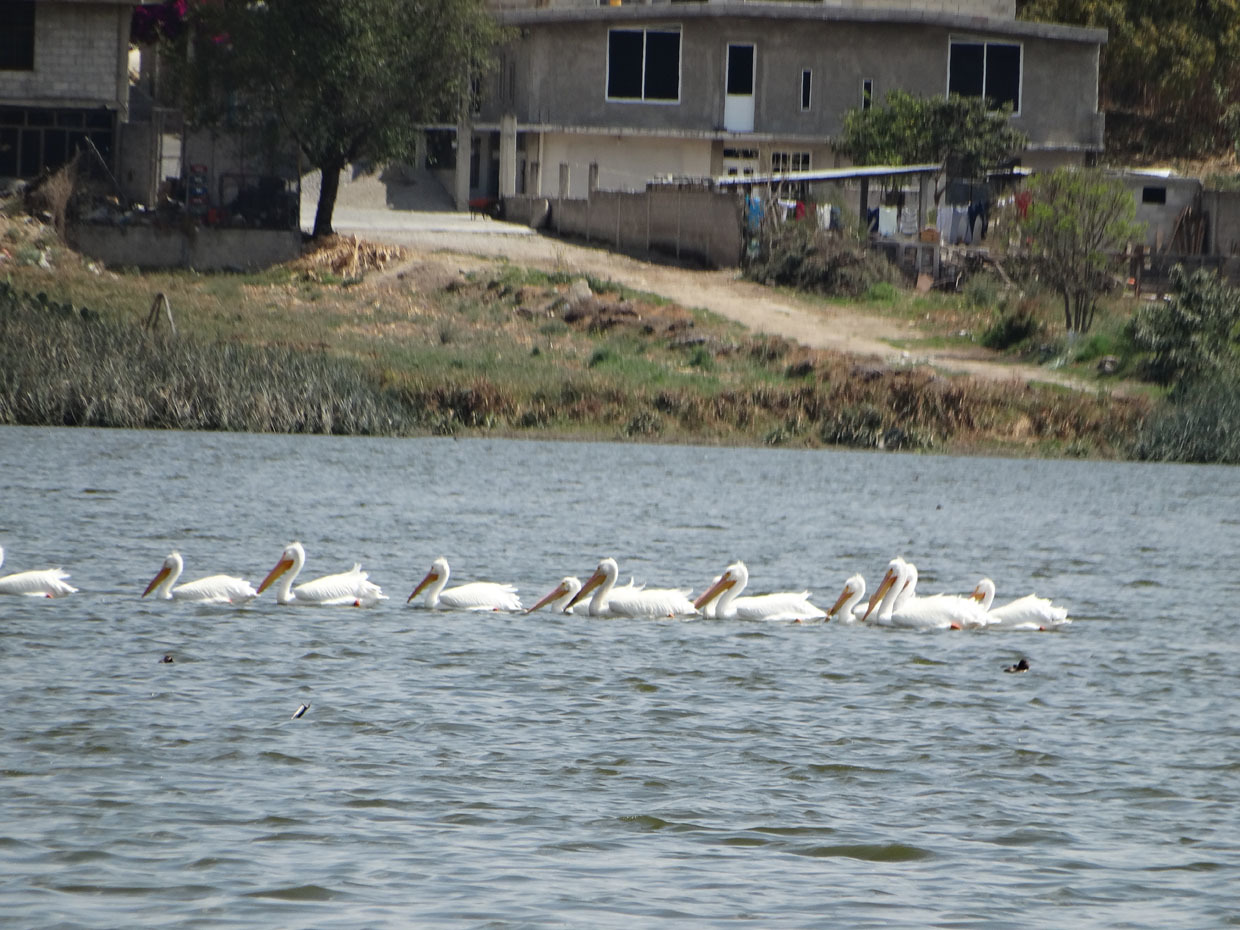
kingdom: Animalia
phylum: Chordata
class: Aves
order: Pelecaniformes
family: Pelecanidae
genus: Pelecanus
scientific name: Pelecanus erythrorhynchos
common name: American white pelican
